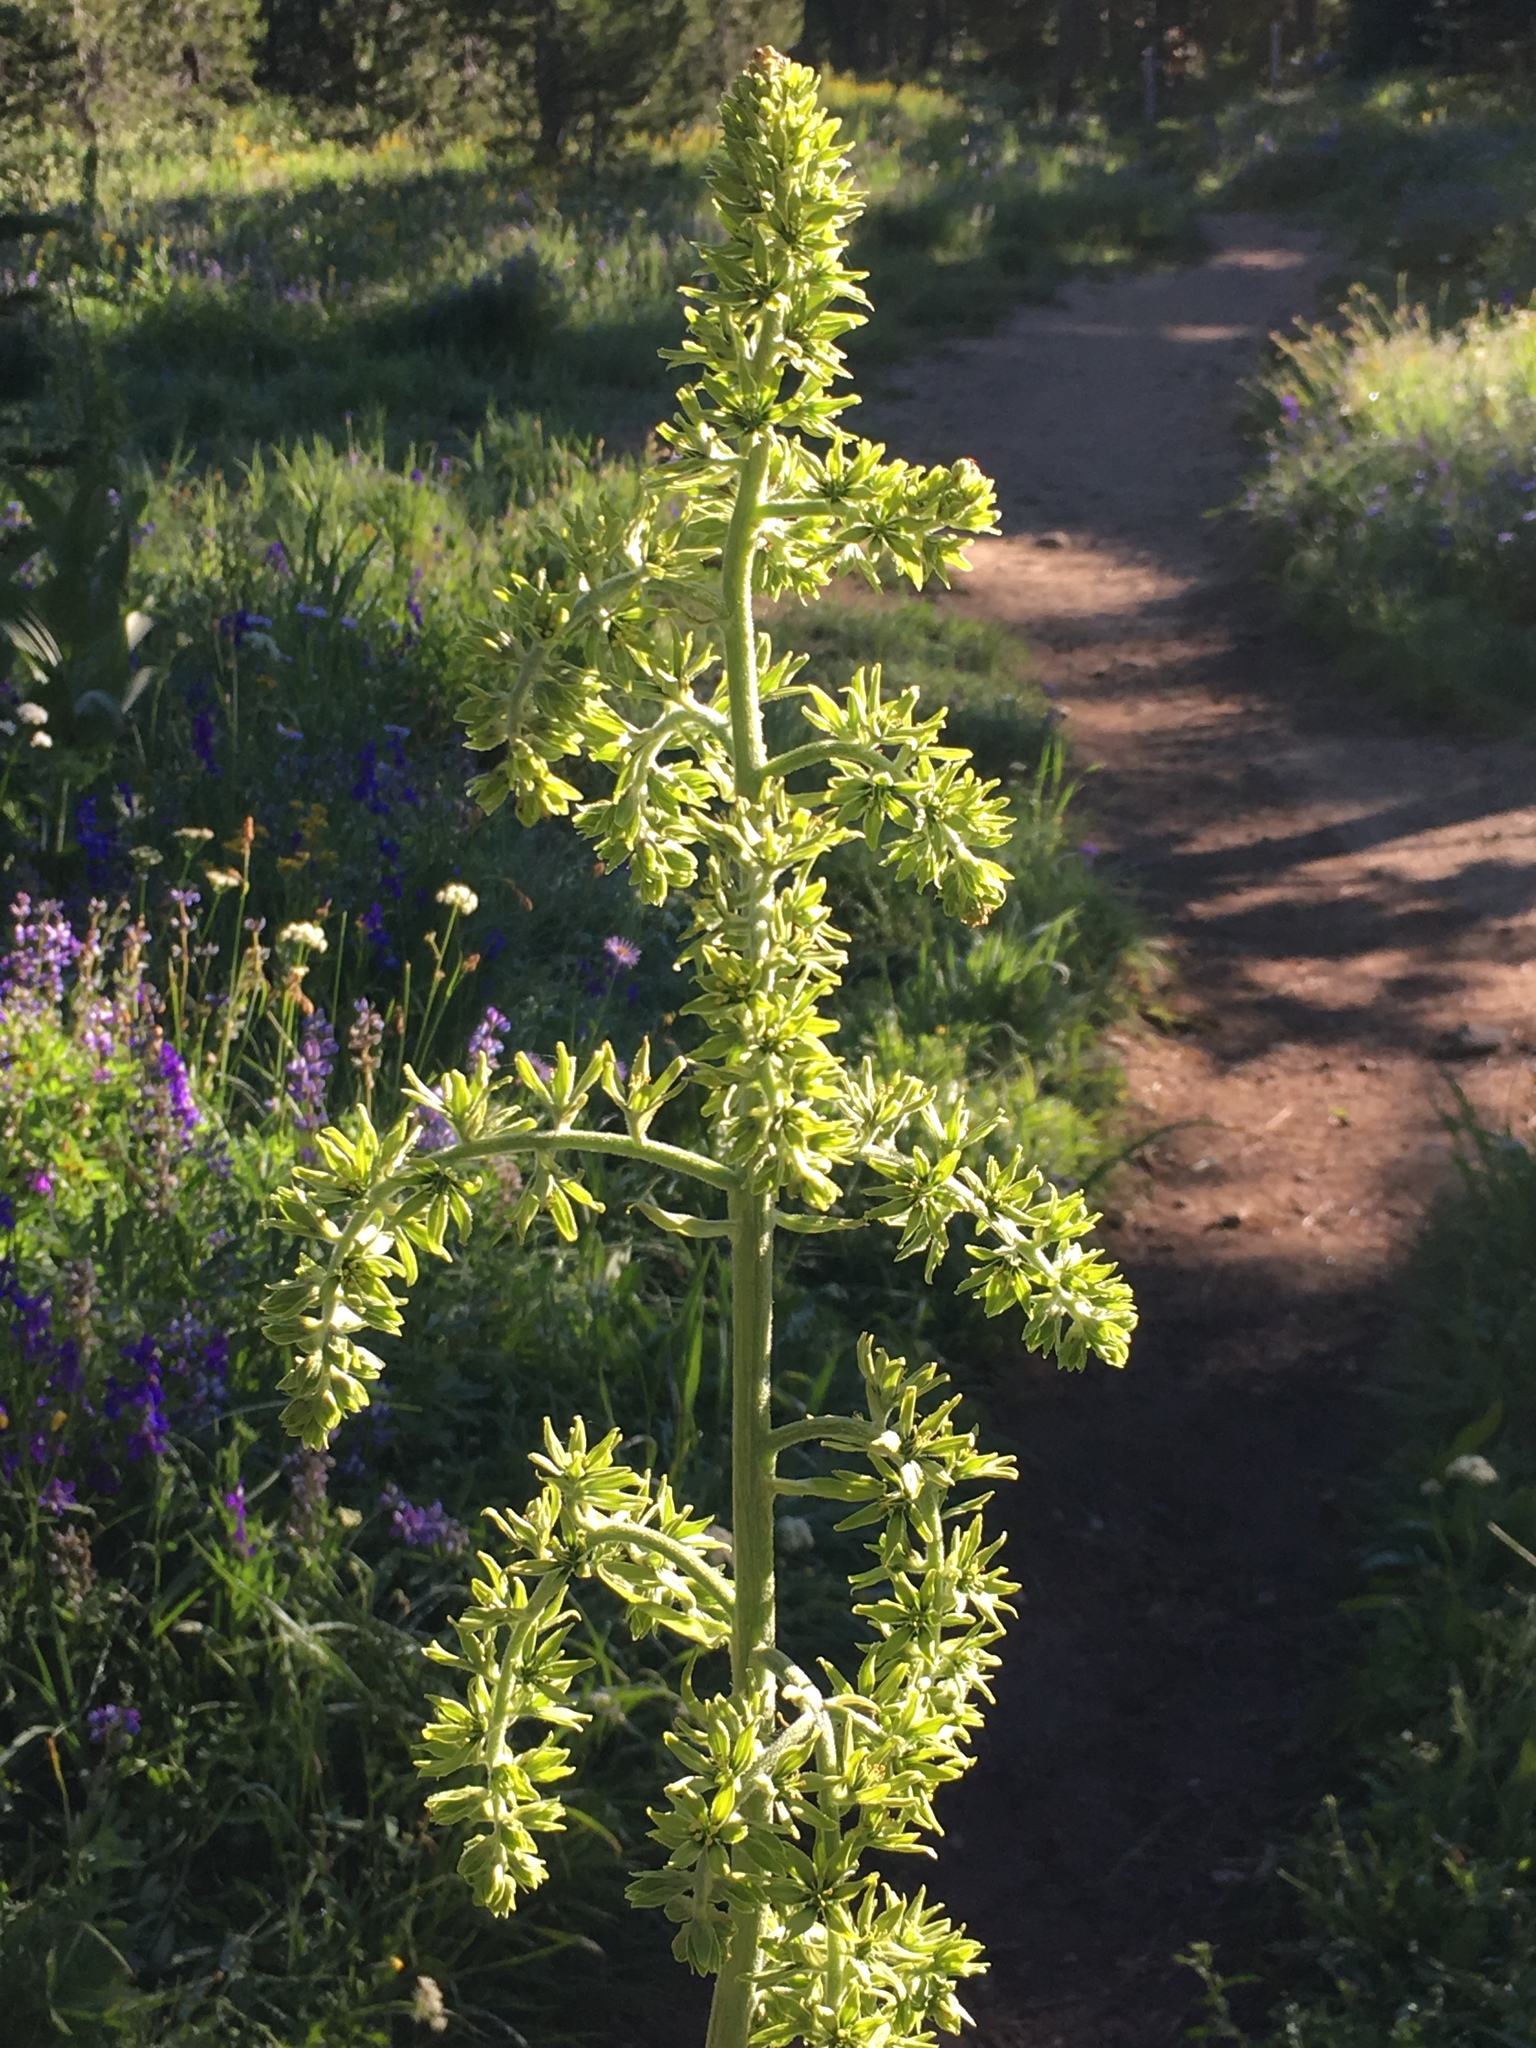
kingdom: Plantae
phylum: Tracheophyta
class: Liliopsida
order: Liliales
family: Melanthiaceae
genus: Veratrum
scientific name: Veratrum viride
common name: American false hellebore
